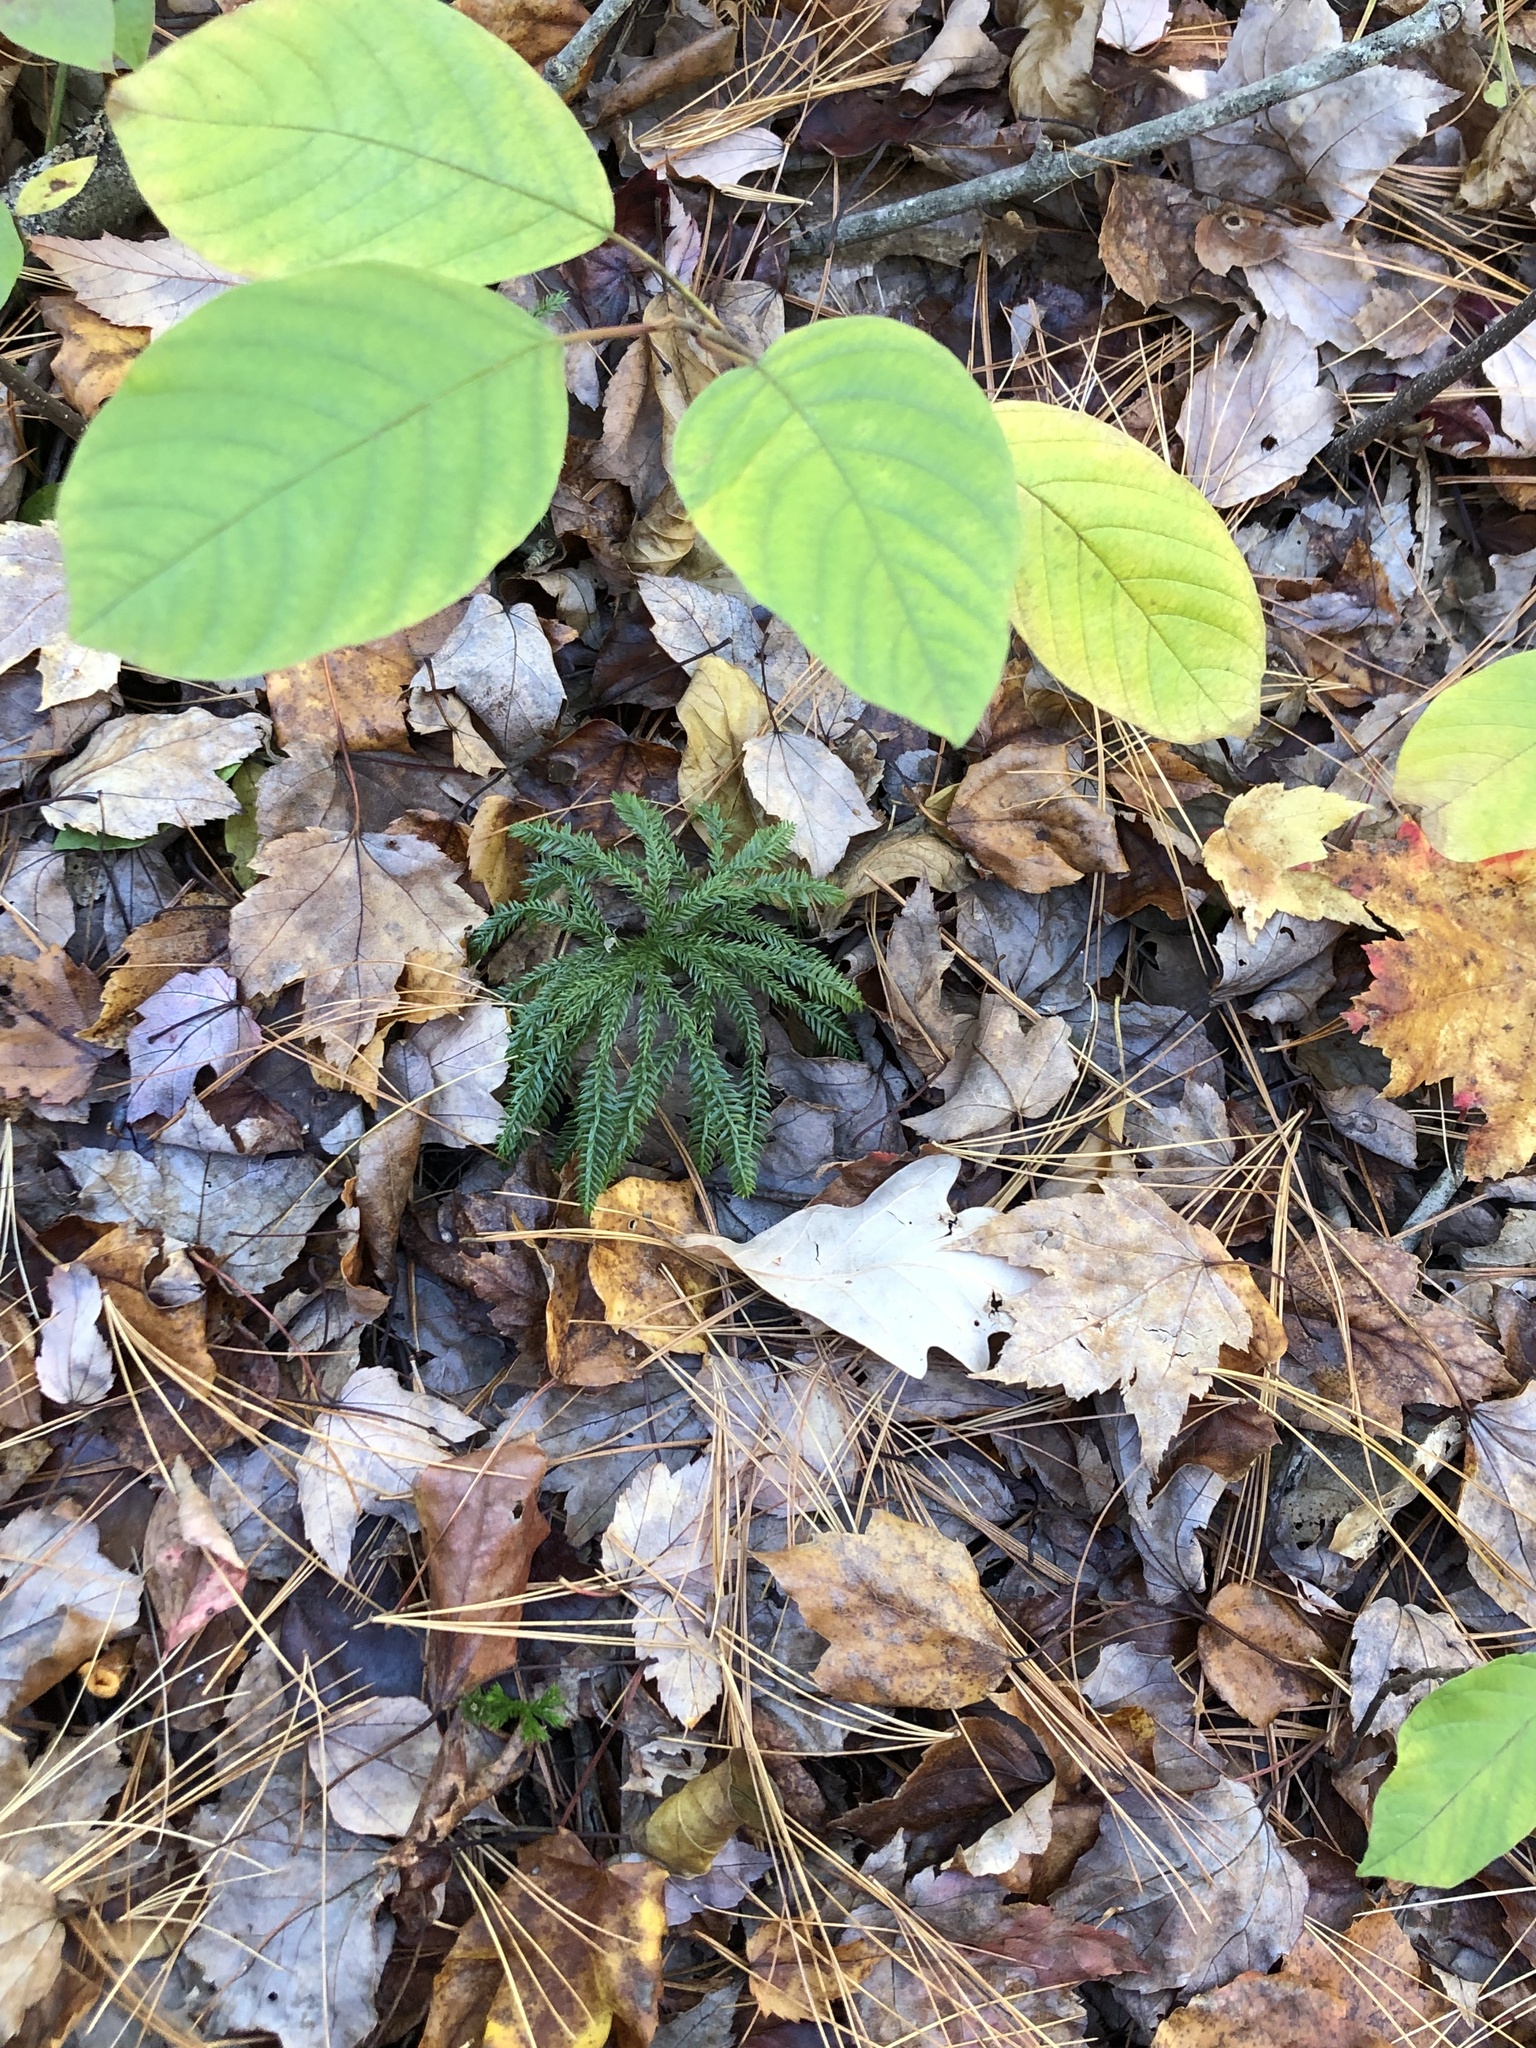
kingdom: Plantae
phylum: Tracheophyta
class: Lycopodiopsida
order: Lycopodiales
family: Lycopodiaceae
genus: Dendrolycopodium
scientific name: Dendrolycopodium obscurum
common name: Common ground-pine
